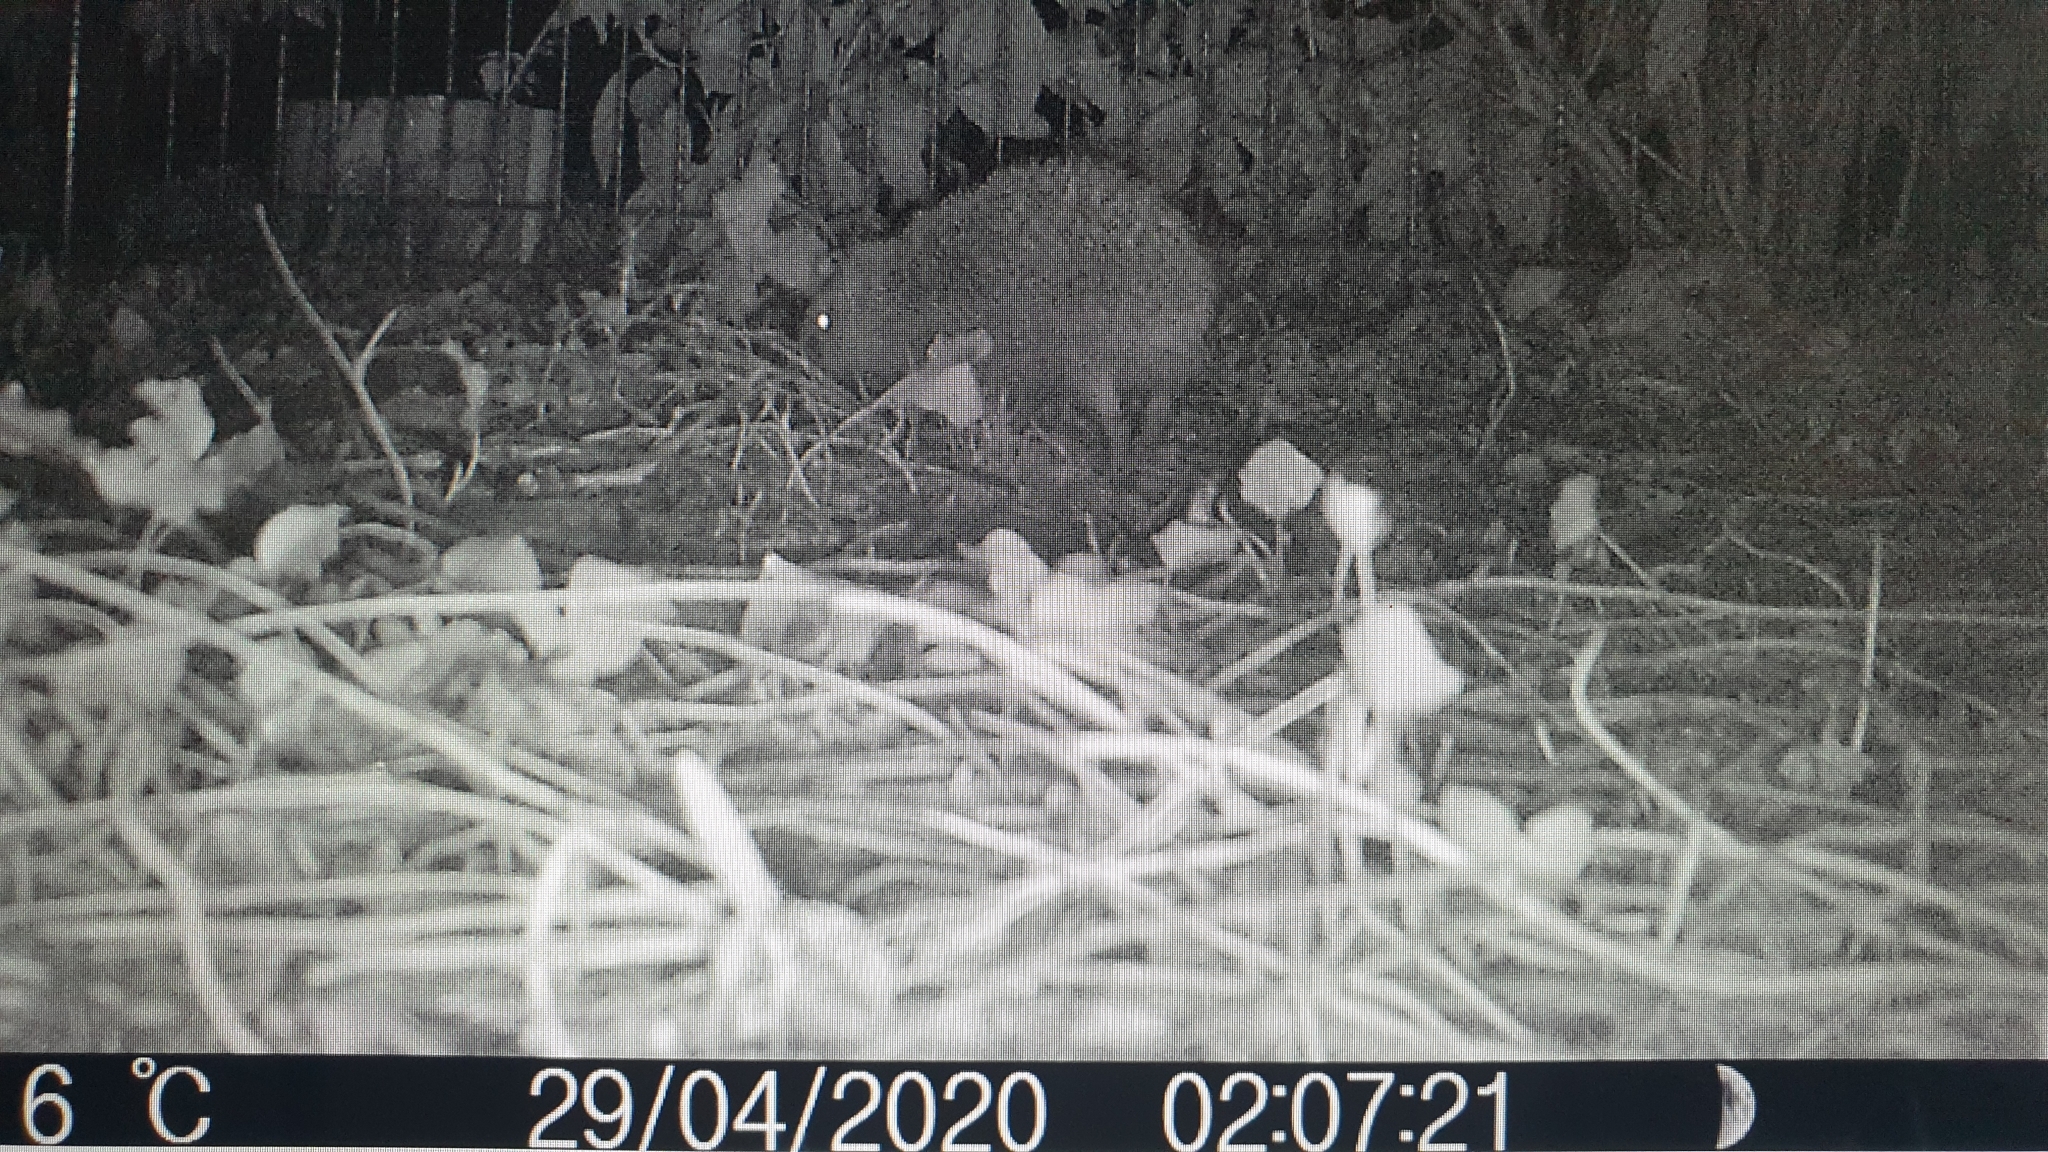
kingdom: Animalia
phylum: Chordata
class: Mammalia
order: Erinaceomorpha
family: Erinaceidae
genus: Erinaceus
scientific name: Erinaceus europaeus
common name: West european hedgehog
